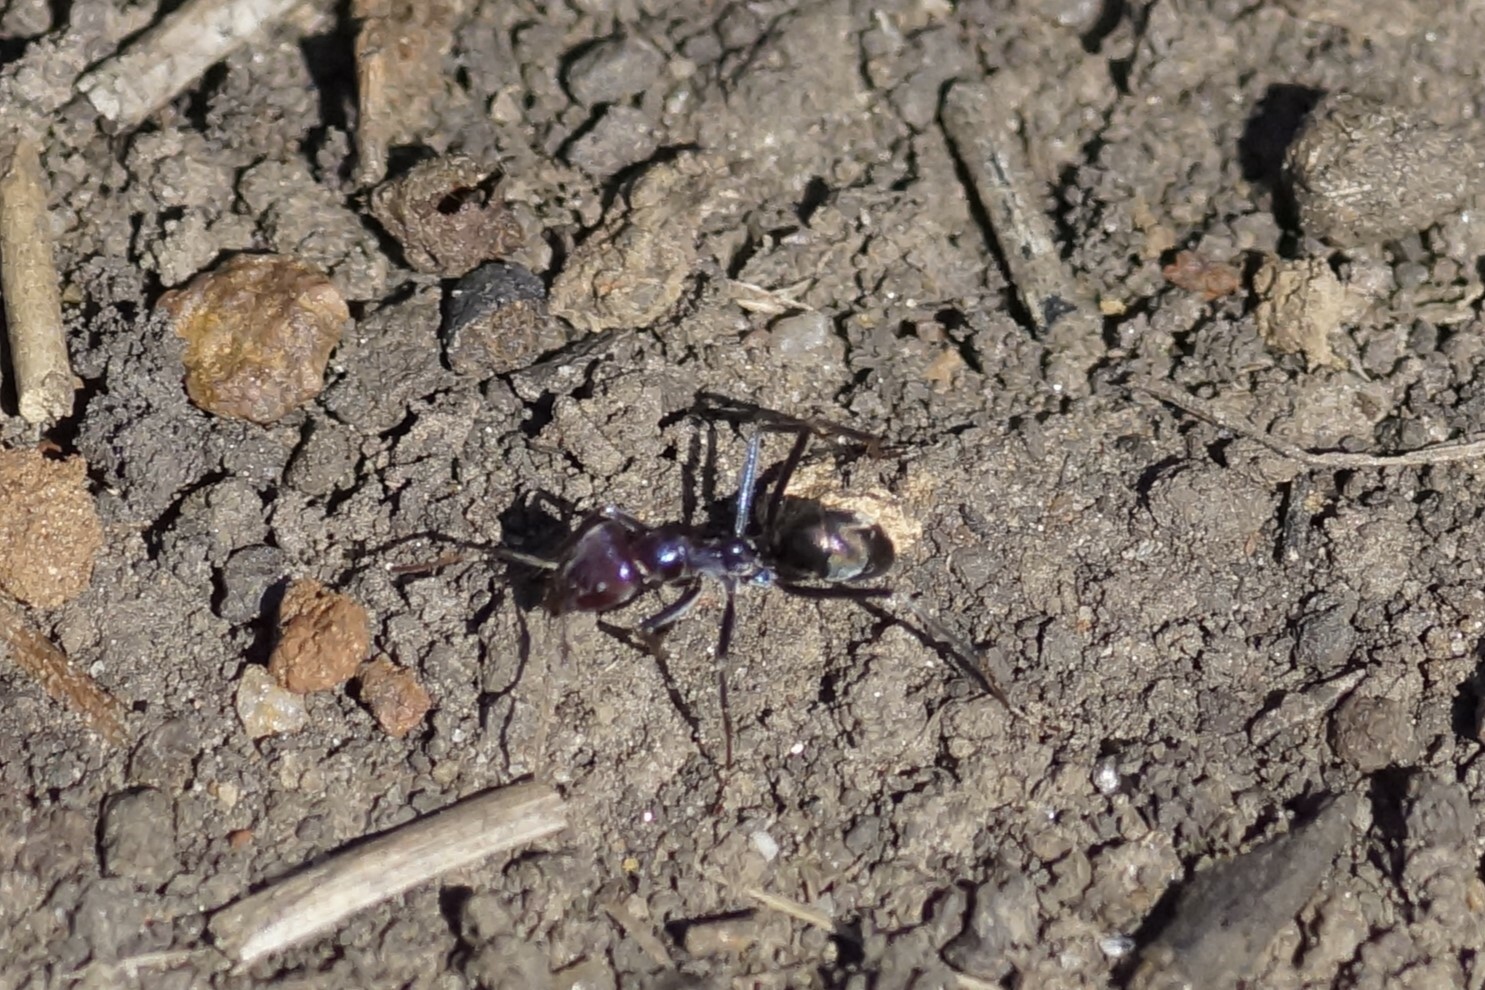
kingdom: Animalia
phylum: Arthropoda
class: Insecta
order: Hymenoptera
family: Formicidae
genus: Iridomyrmex
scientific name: Iridomyrmex purpureus
